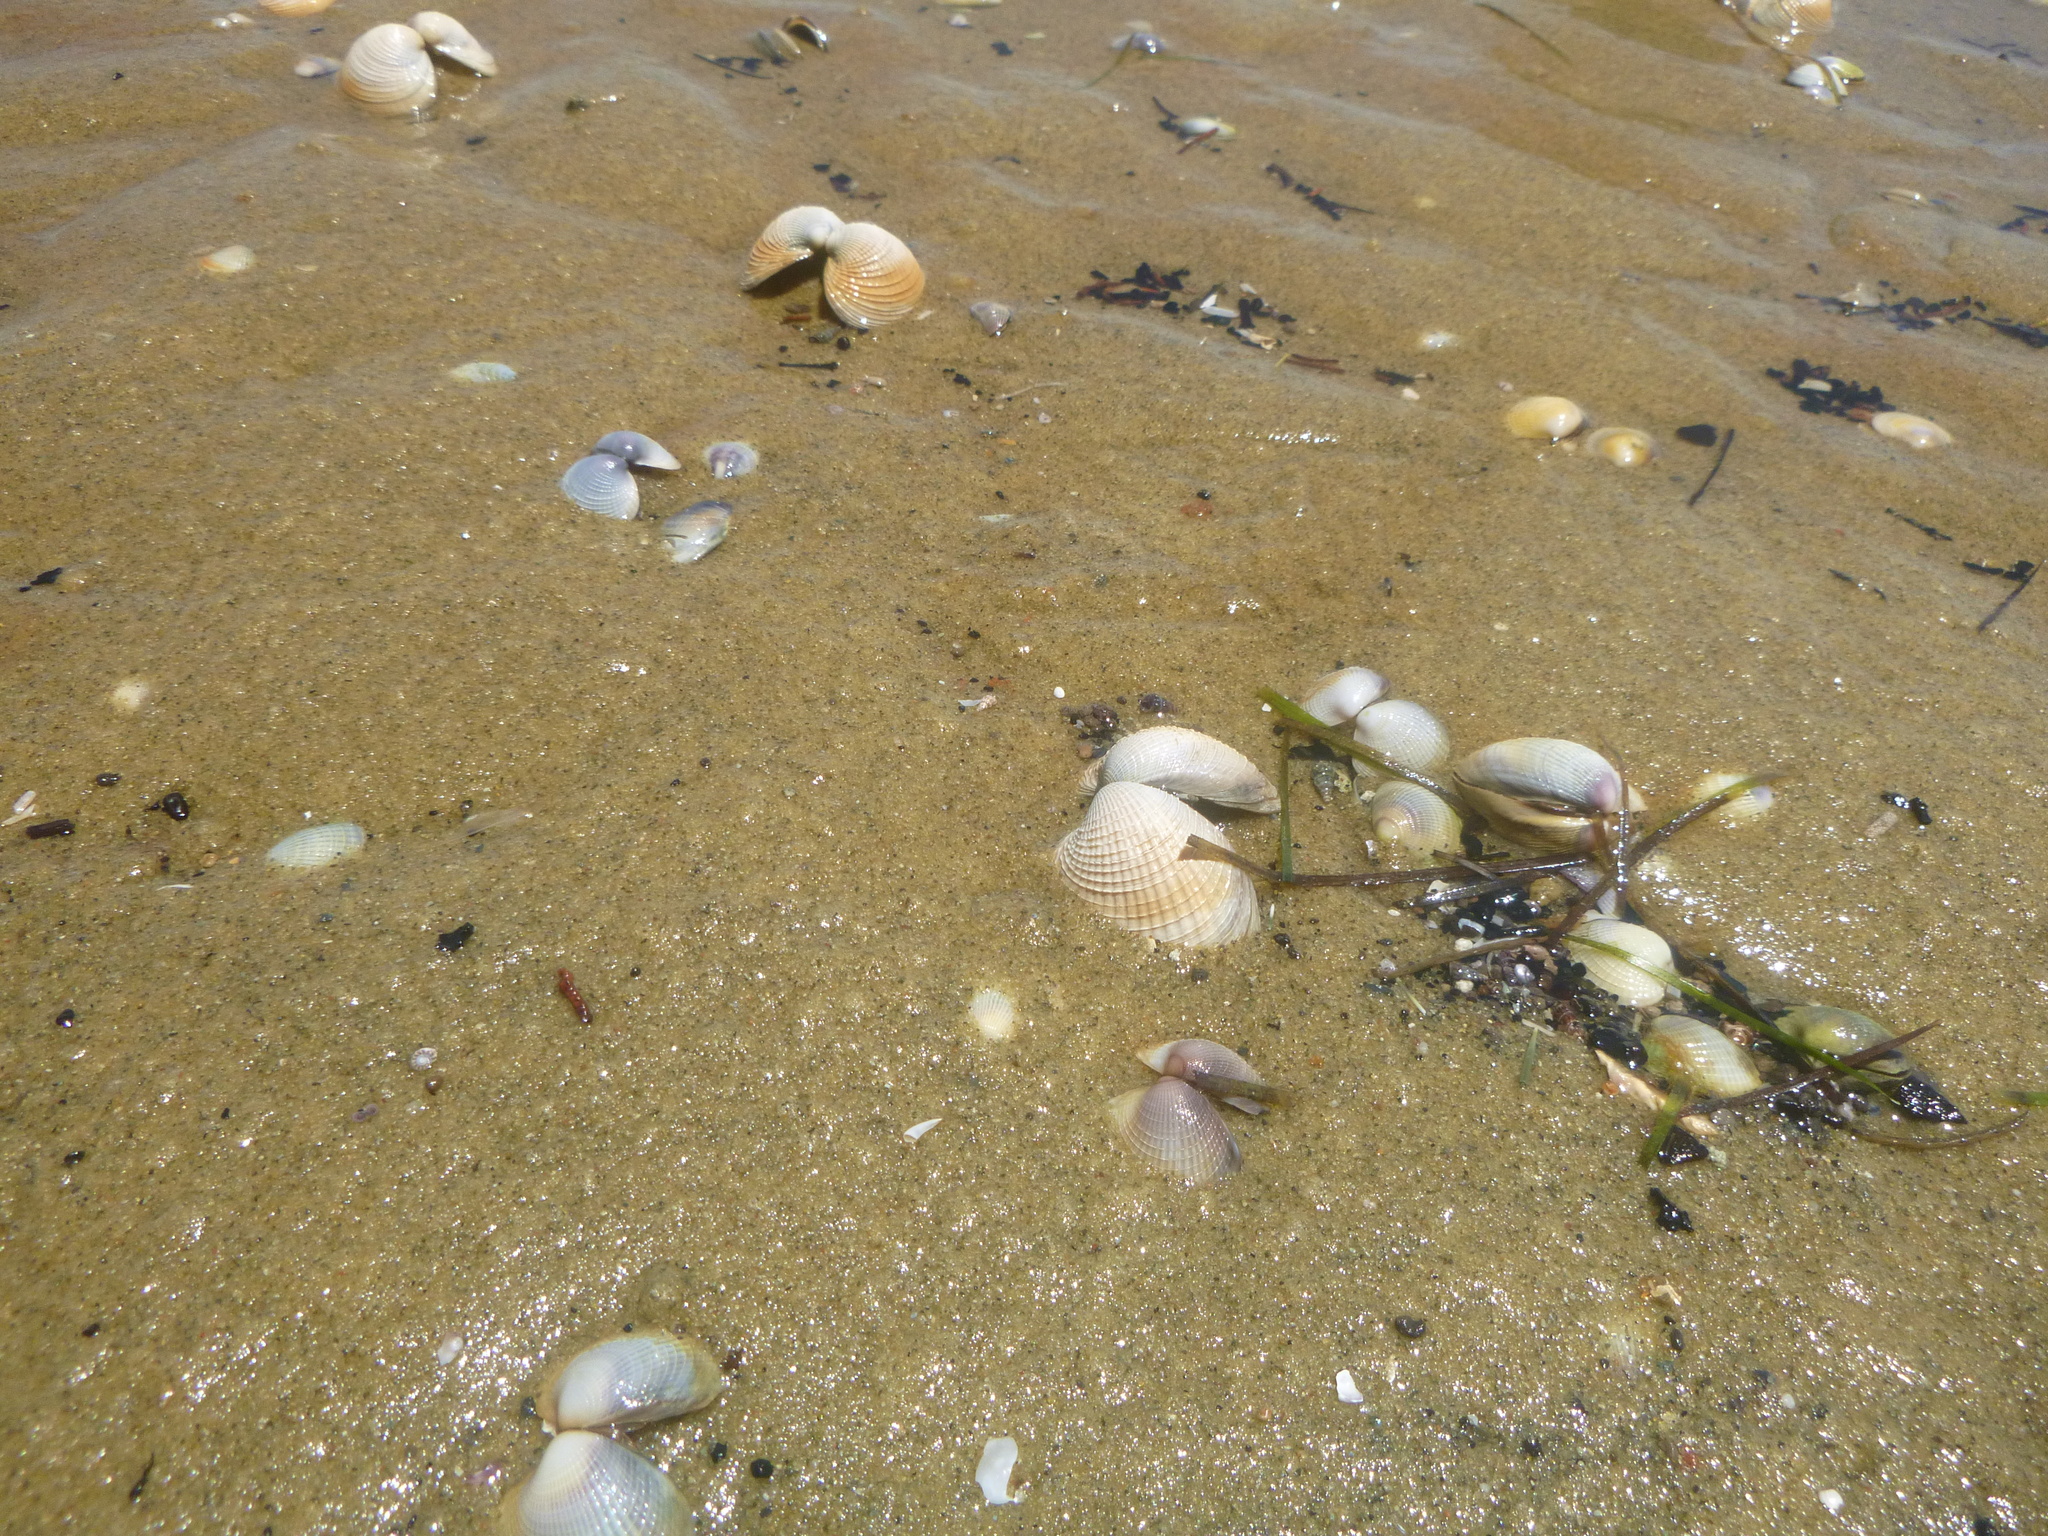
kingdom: Animalia
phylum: Mollusca
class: Bivalvia
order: Venerida
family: Veneridae
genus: Austrovenus
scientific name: Austrovenus stutchburyi
